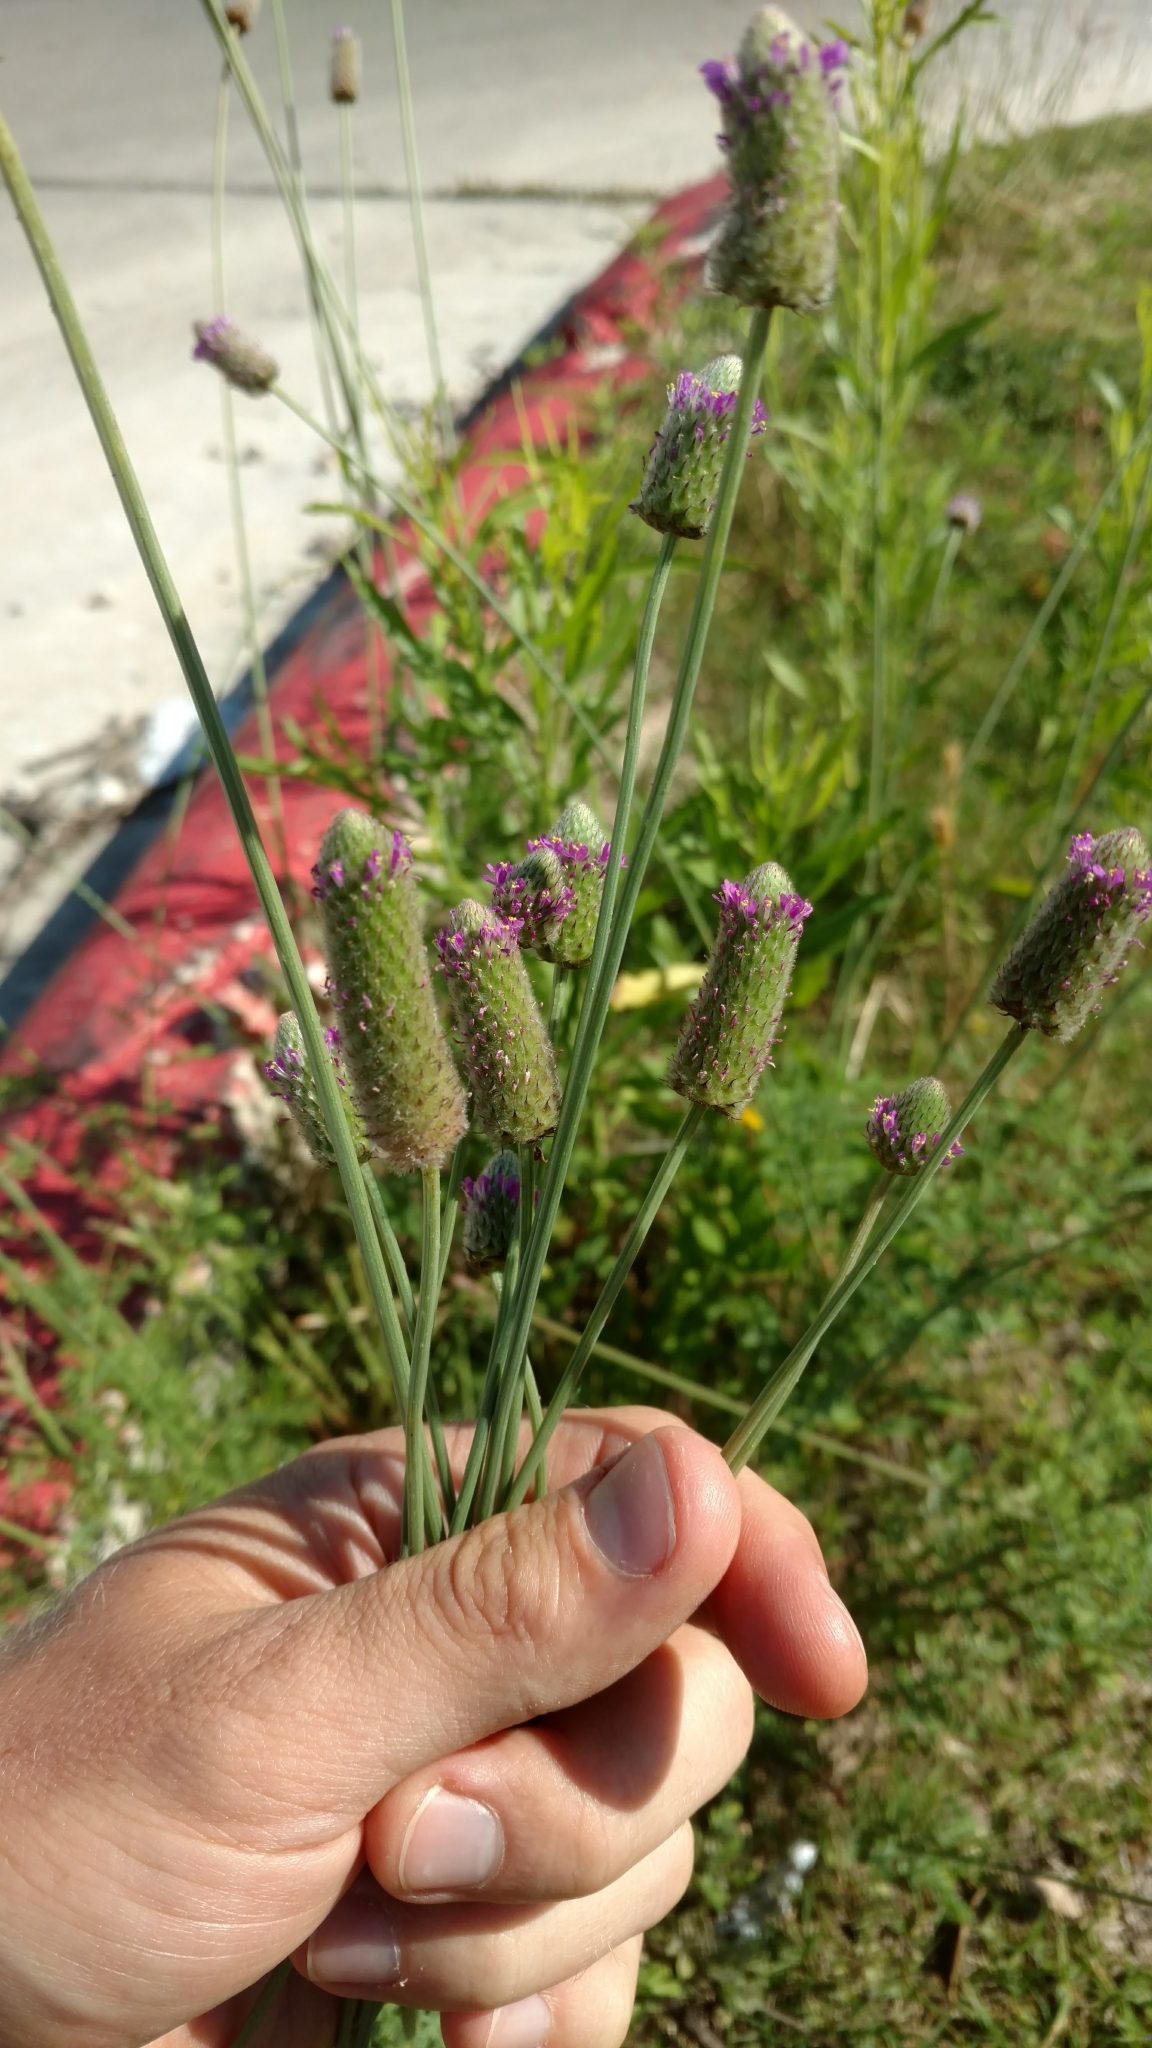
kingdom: Plantae
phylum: Tracheophyta
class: Magnoliopsida
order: Fabales
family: Fabaceae
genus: Dalea
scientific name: Dalea emarginata
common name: Wedgeleaf prairie clover
